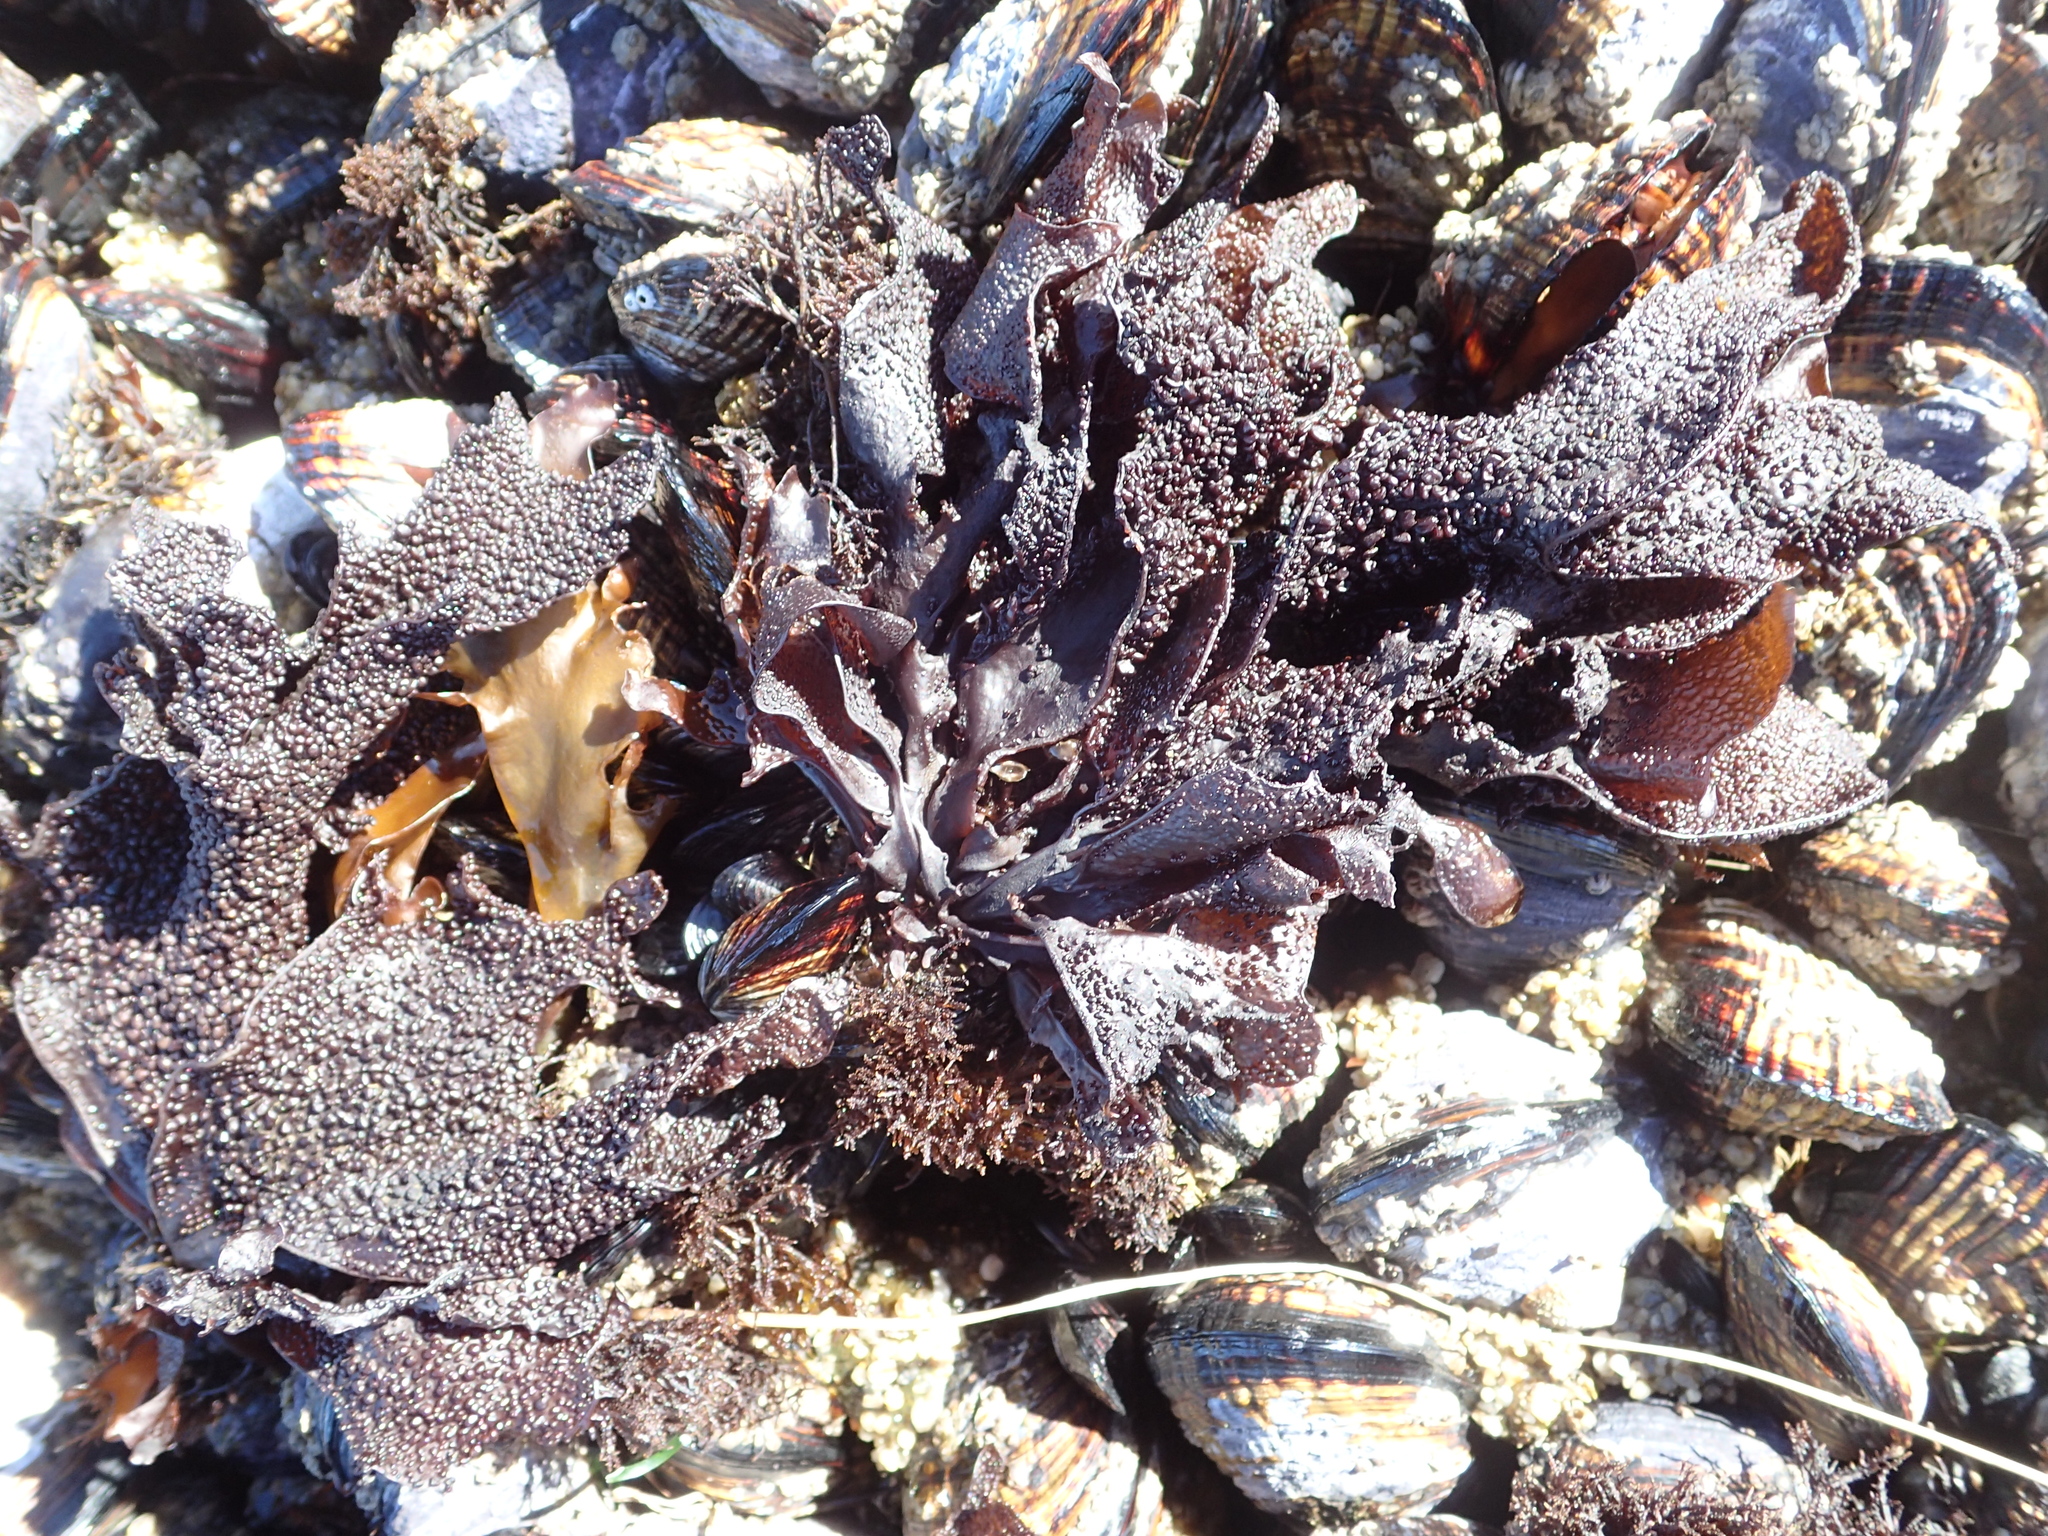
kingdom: Plantae
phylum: Rhodophyta
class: Florideophyceae
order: Gigartinales
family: Phyllophoraceae
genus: Mastocarpus
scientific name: Mastocarpus papillatus
